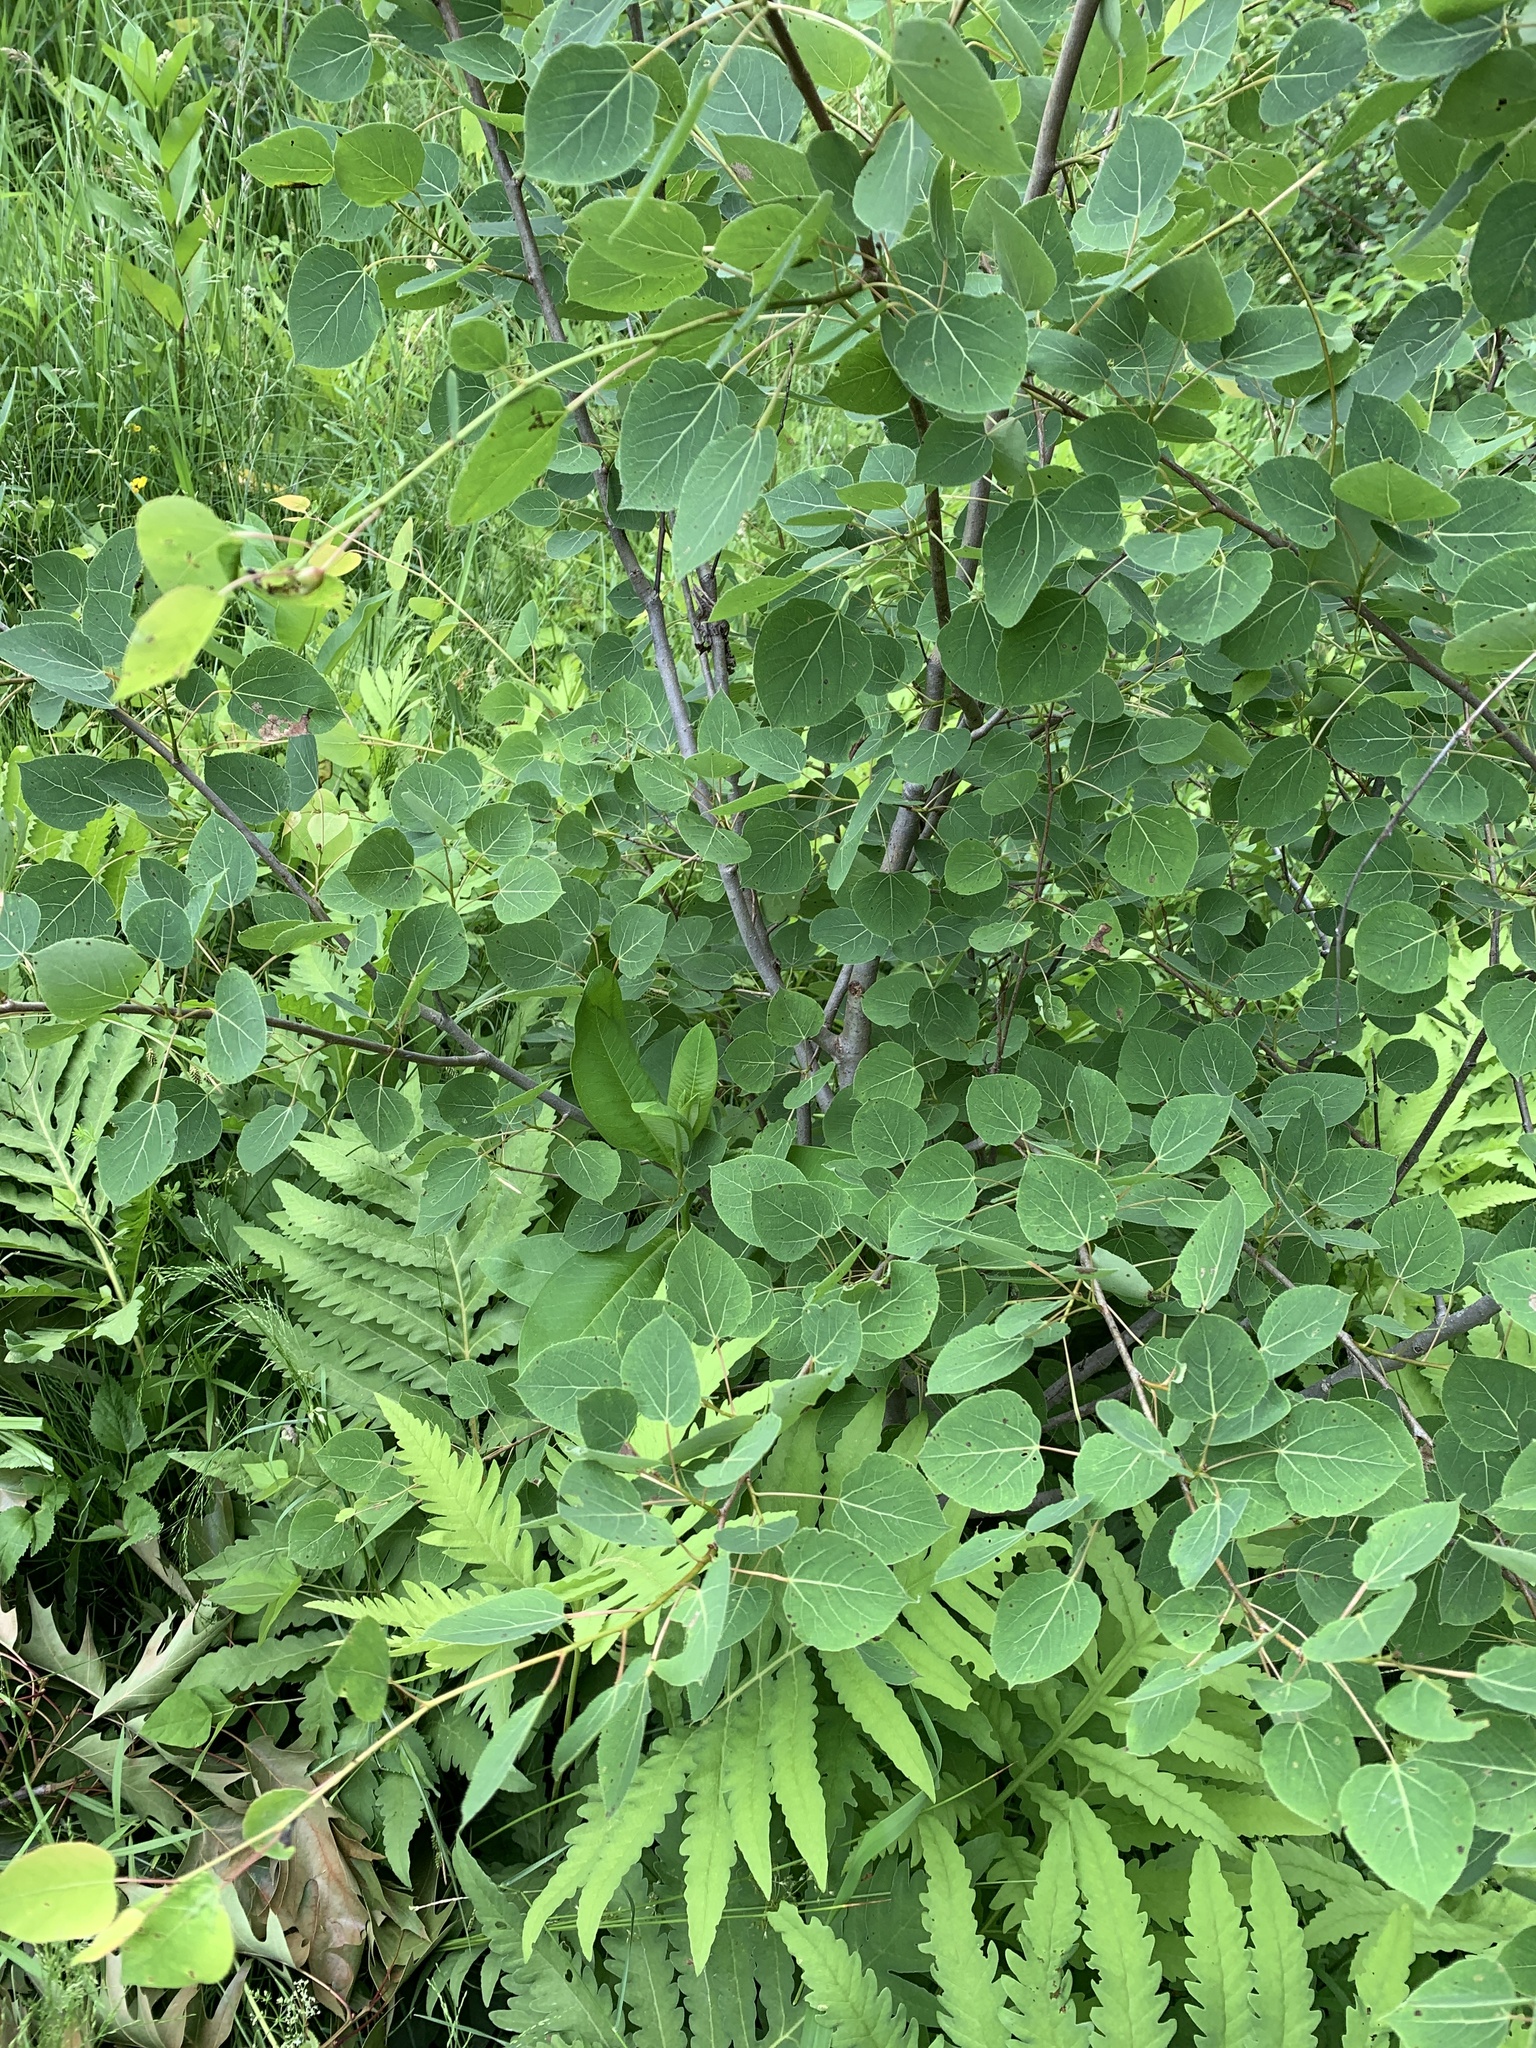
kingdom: Plantae
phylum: Tracheophyta
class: Magnoliopsida
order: Malpighiales
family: Salicaceae
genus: Populus
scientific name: Populus tremuloides
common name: Quaking aspen
